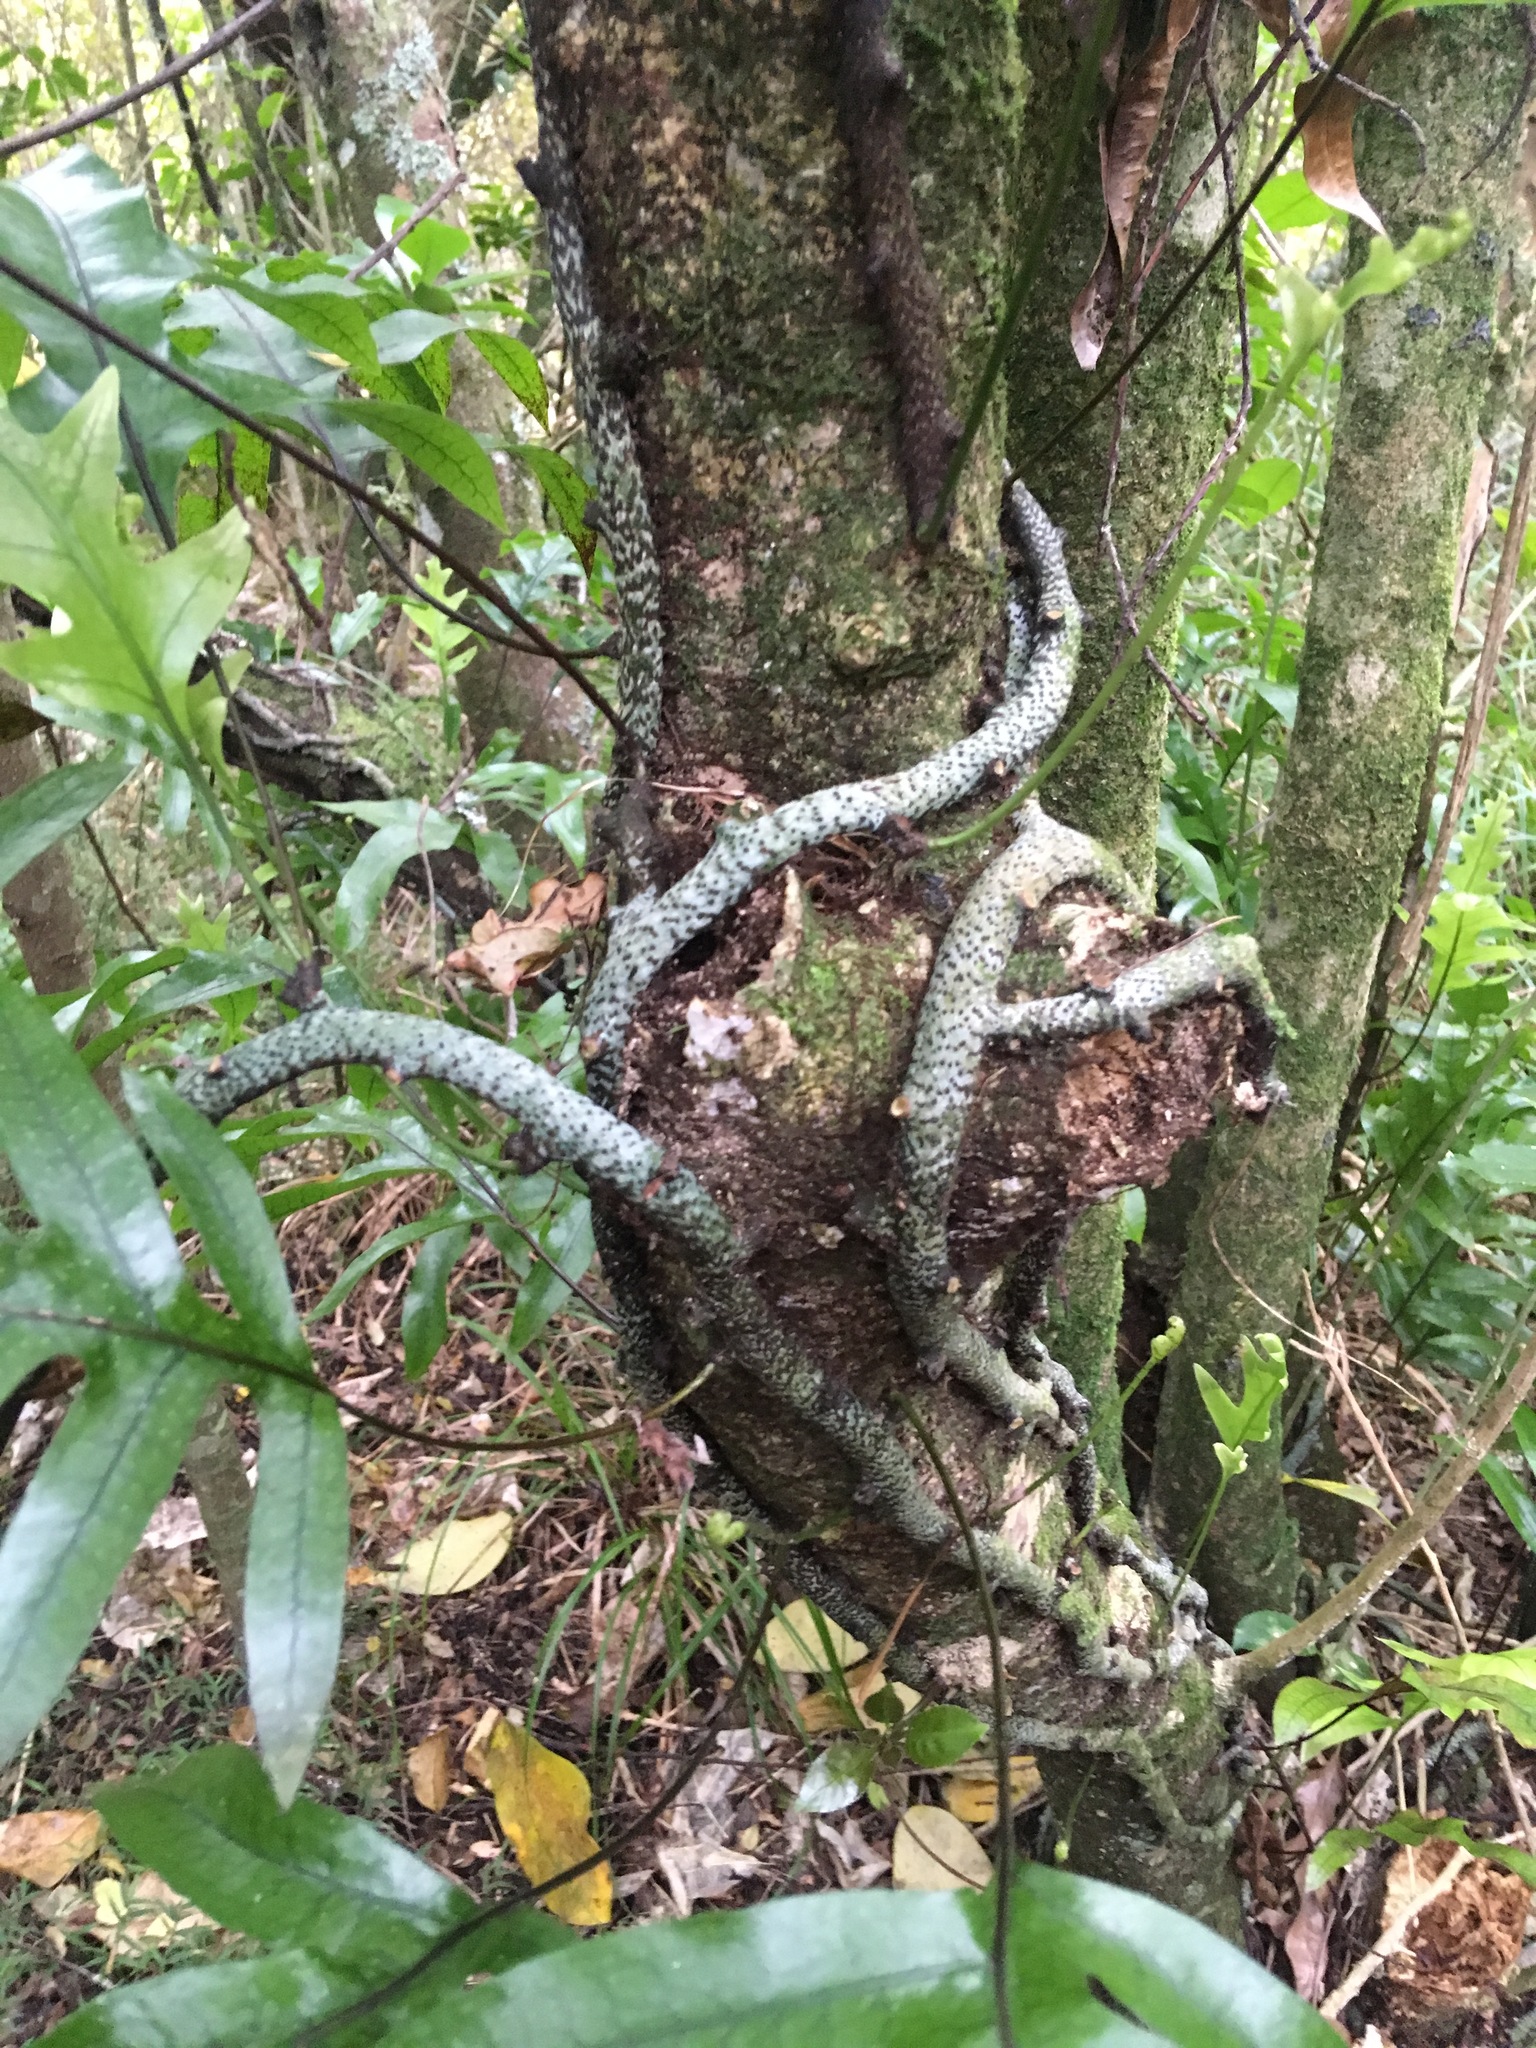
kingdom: Plantae
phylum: Tracheophyta
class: Polypodiopsida
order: Polypodiales
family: Polypodiaceae
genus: Lecanopteris
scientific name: Lecanopteris pustulata
